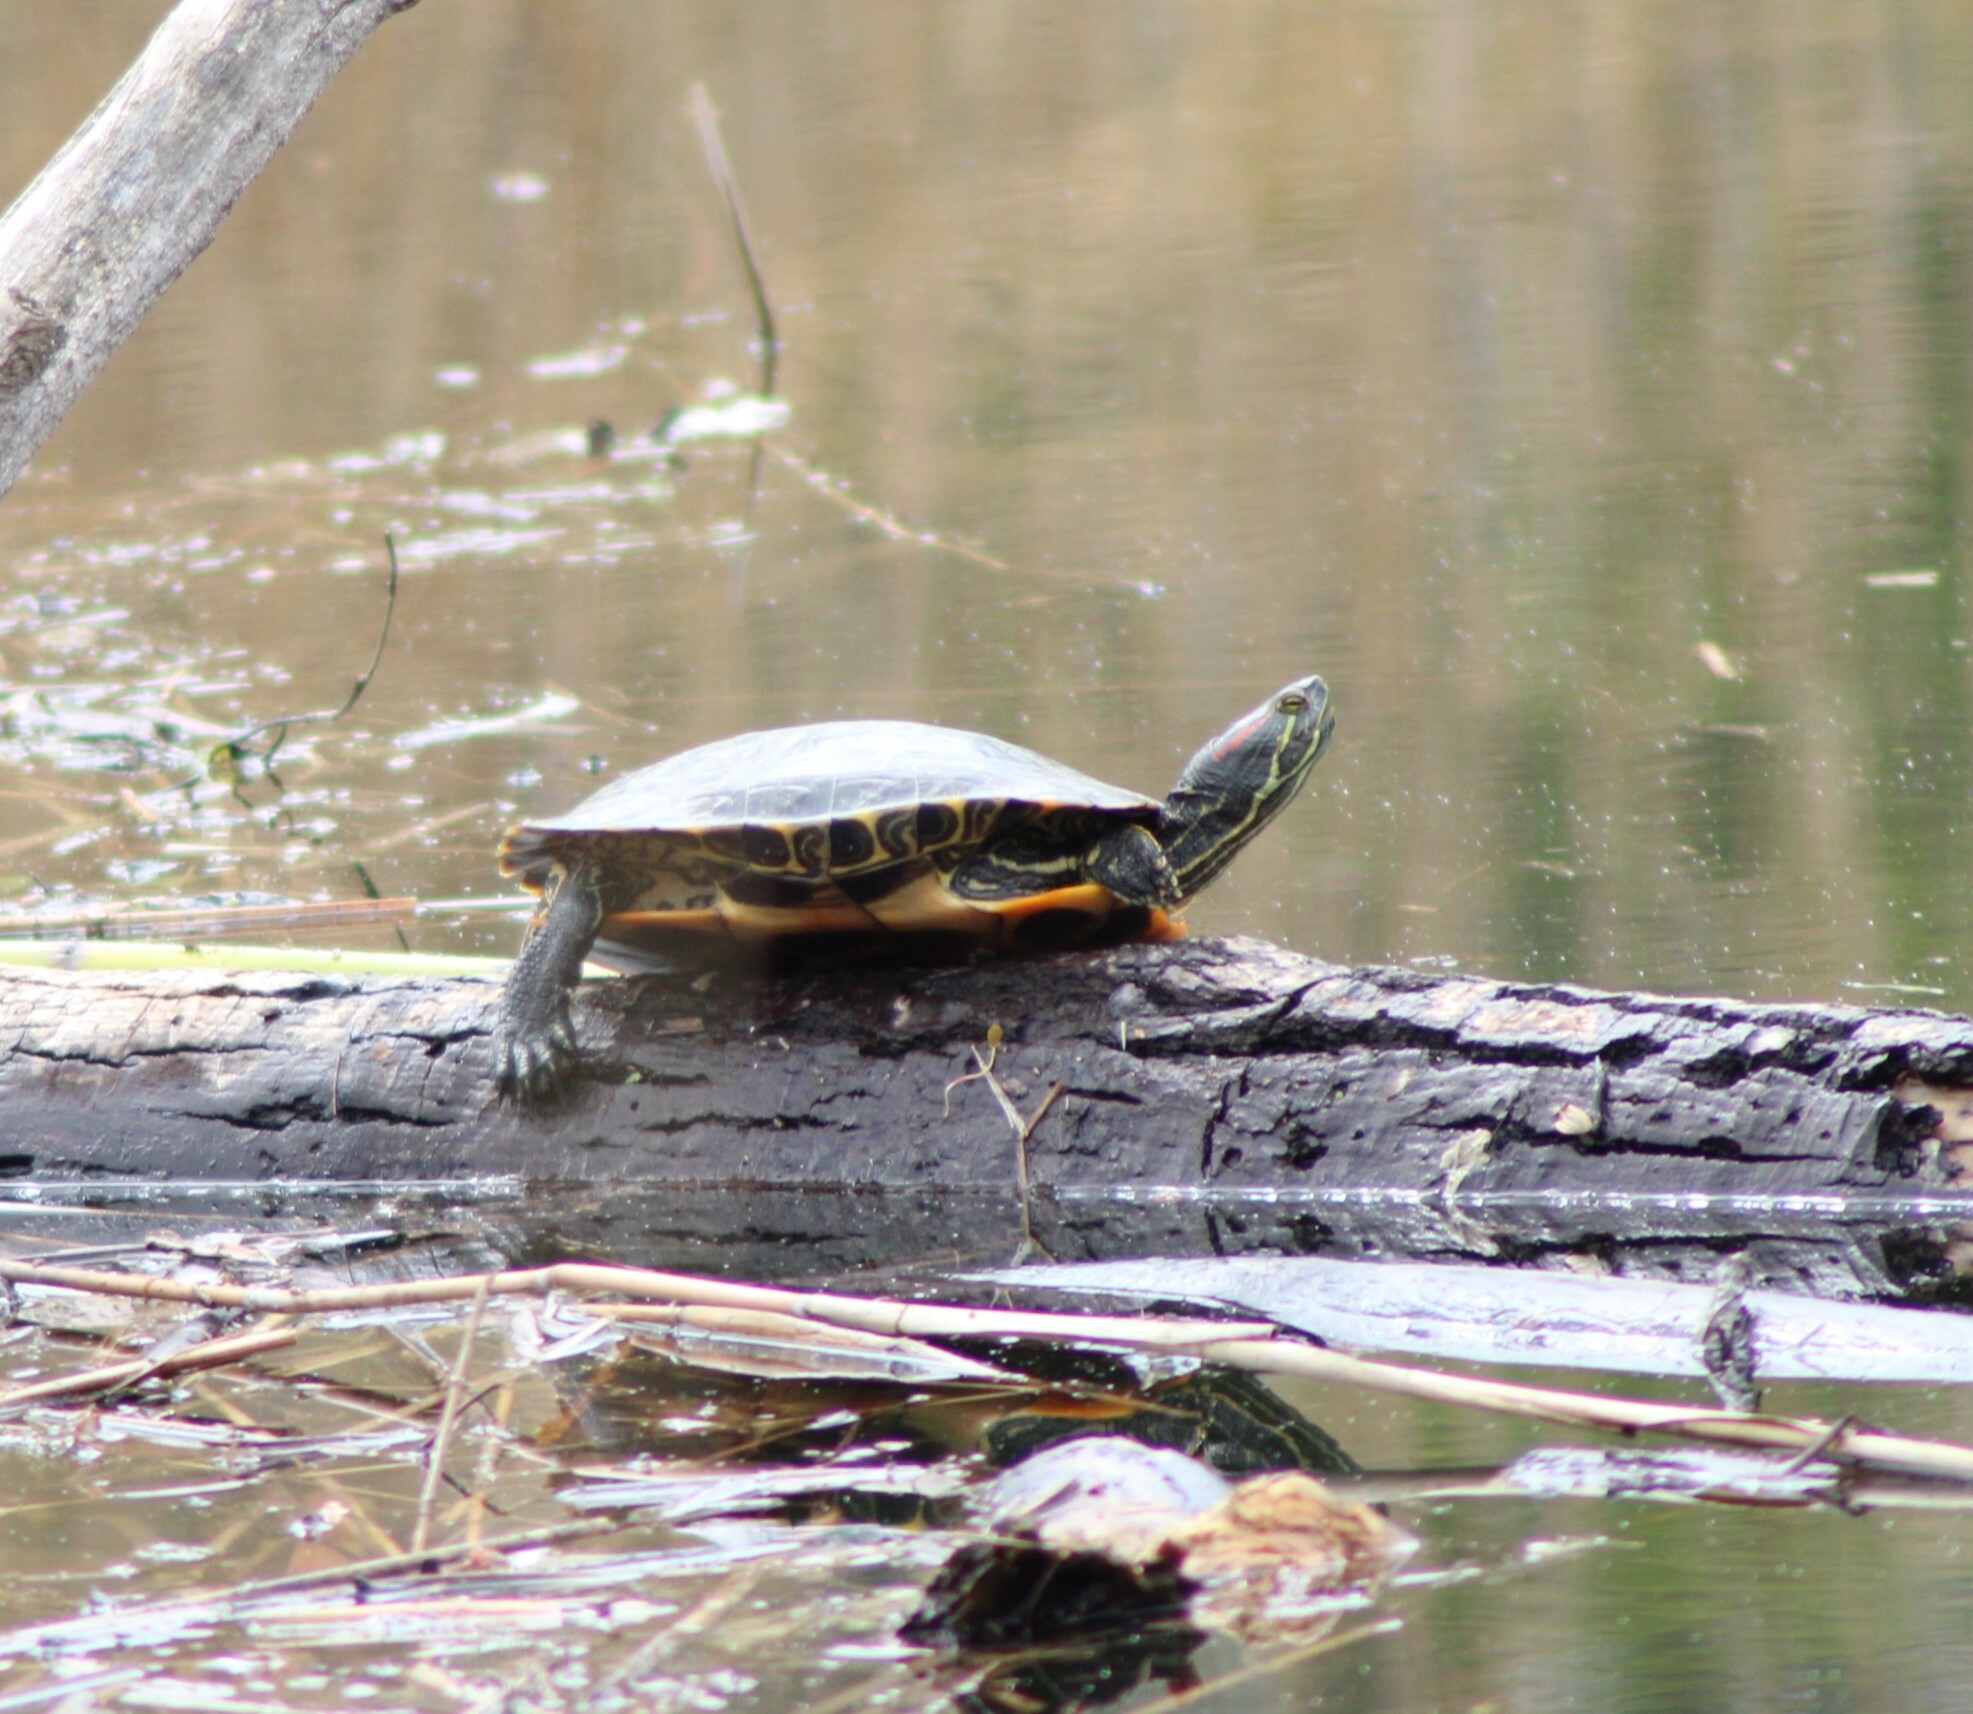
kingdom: Animalia
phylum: Chordata
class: Testudines
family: Emydidae
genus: Trachemys
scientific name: Trachemys scripta
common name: Slider
